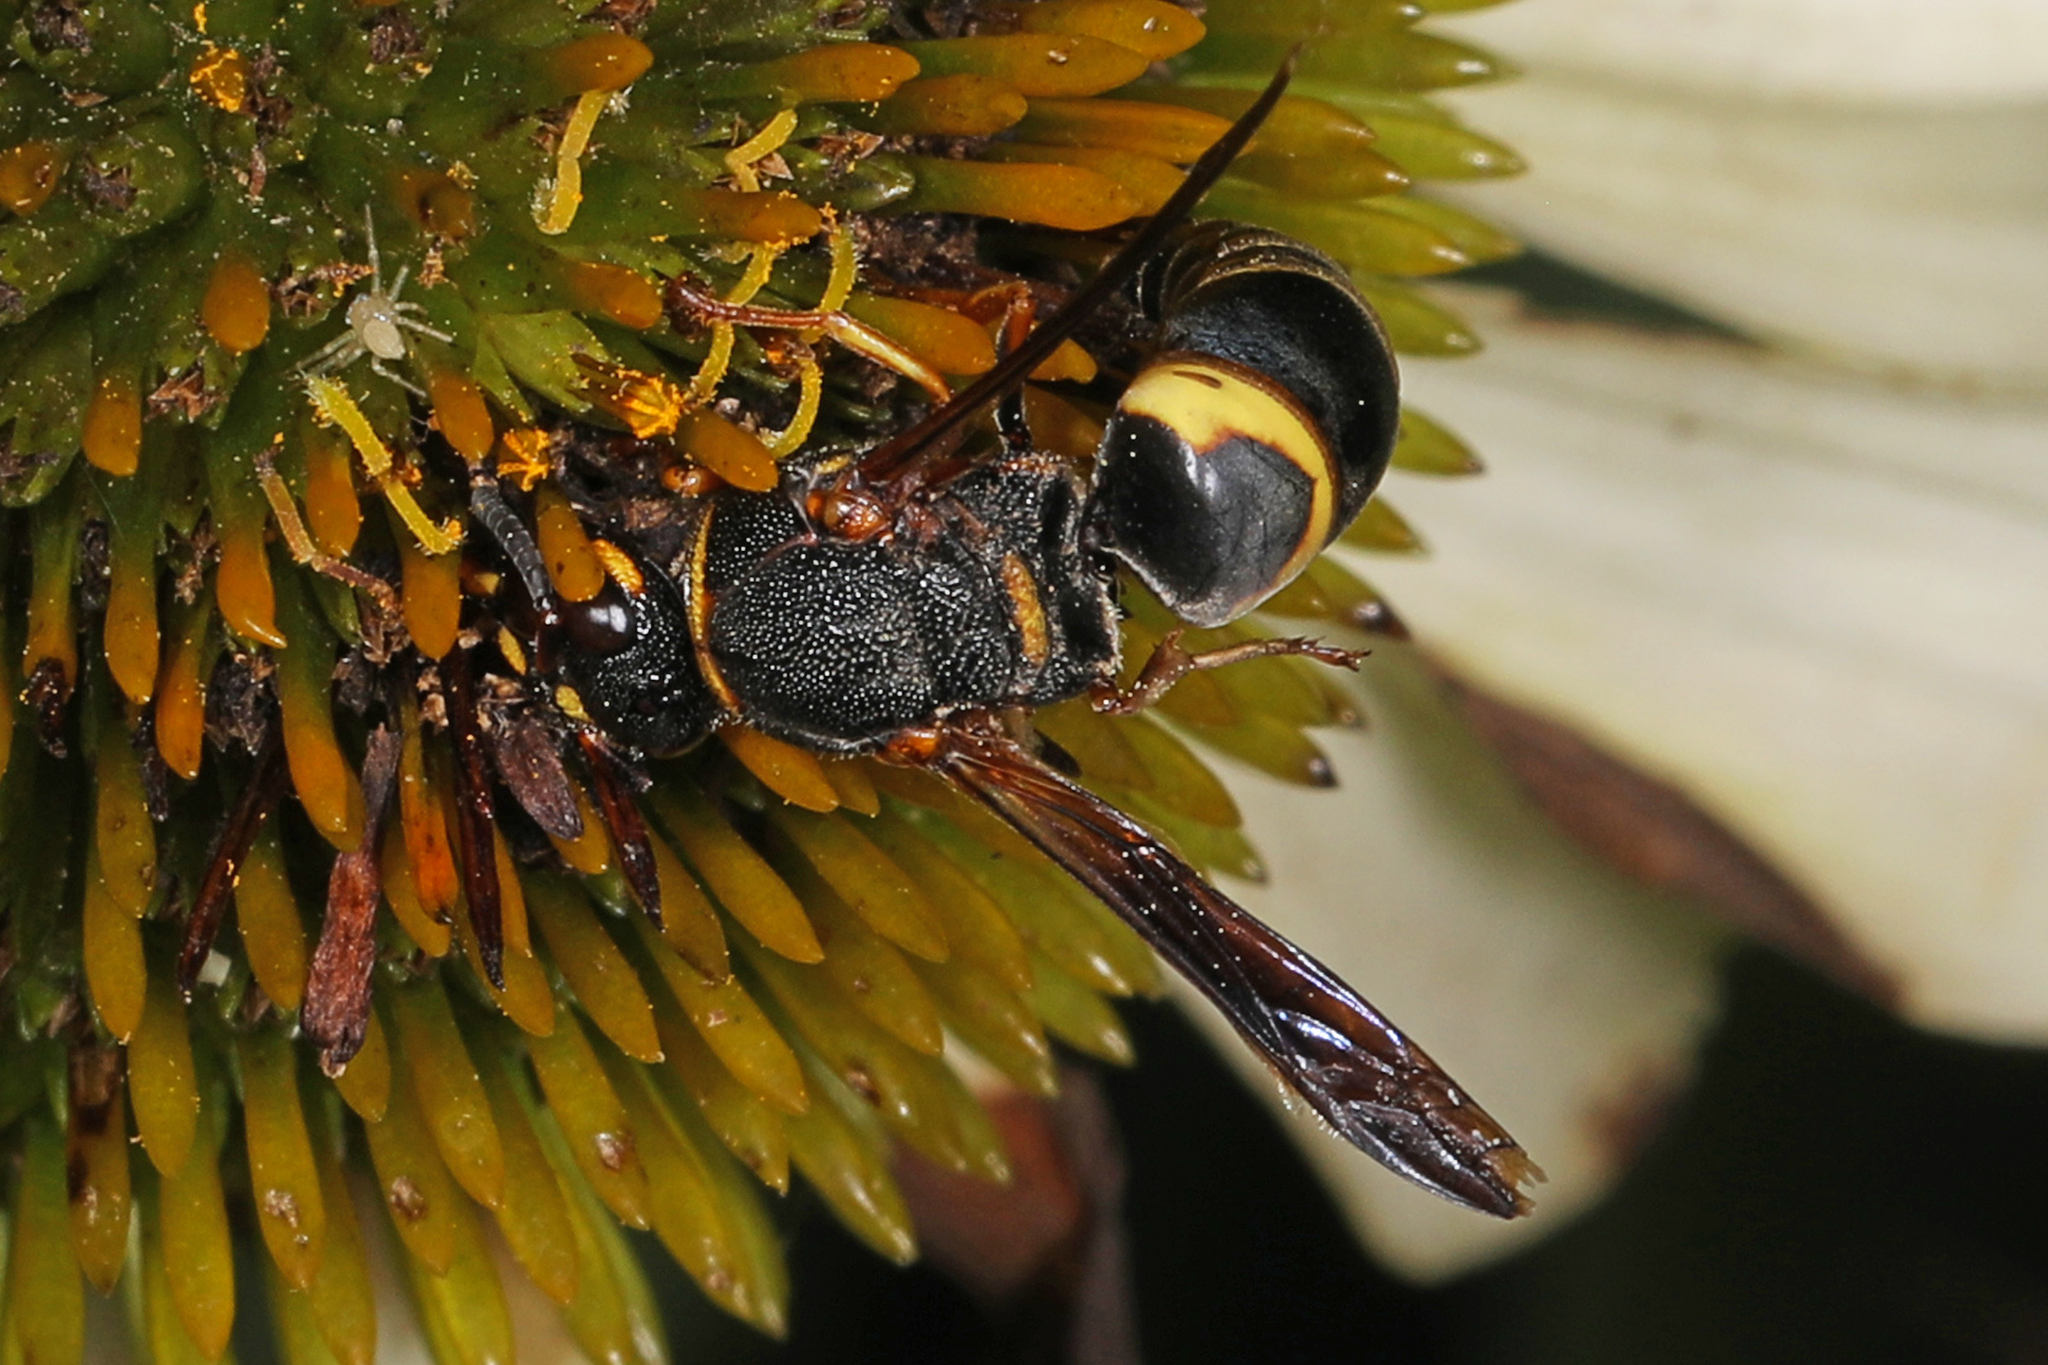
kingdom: Animalia
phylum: Arthropoda
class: Insecta
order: Hymenoptera
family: Eumenidae
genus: Euodynerus
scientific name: Euodynerus hidalgo
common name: Wasp
